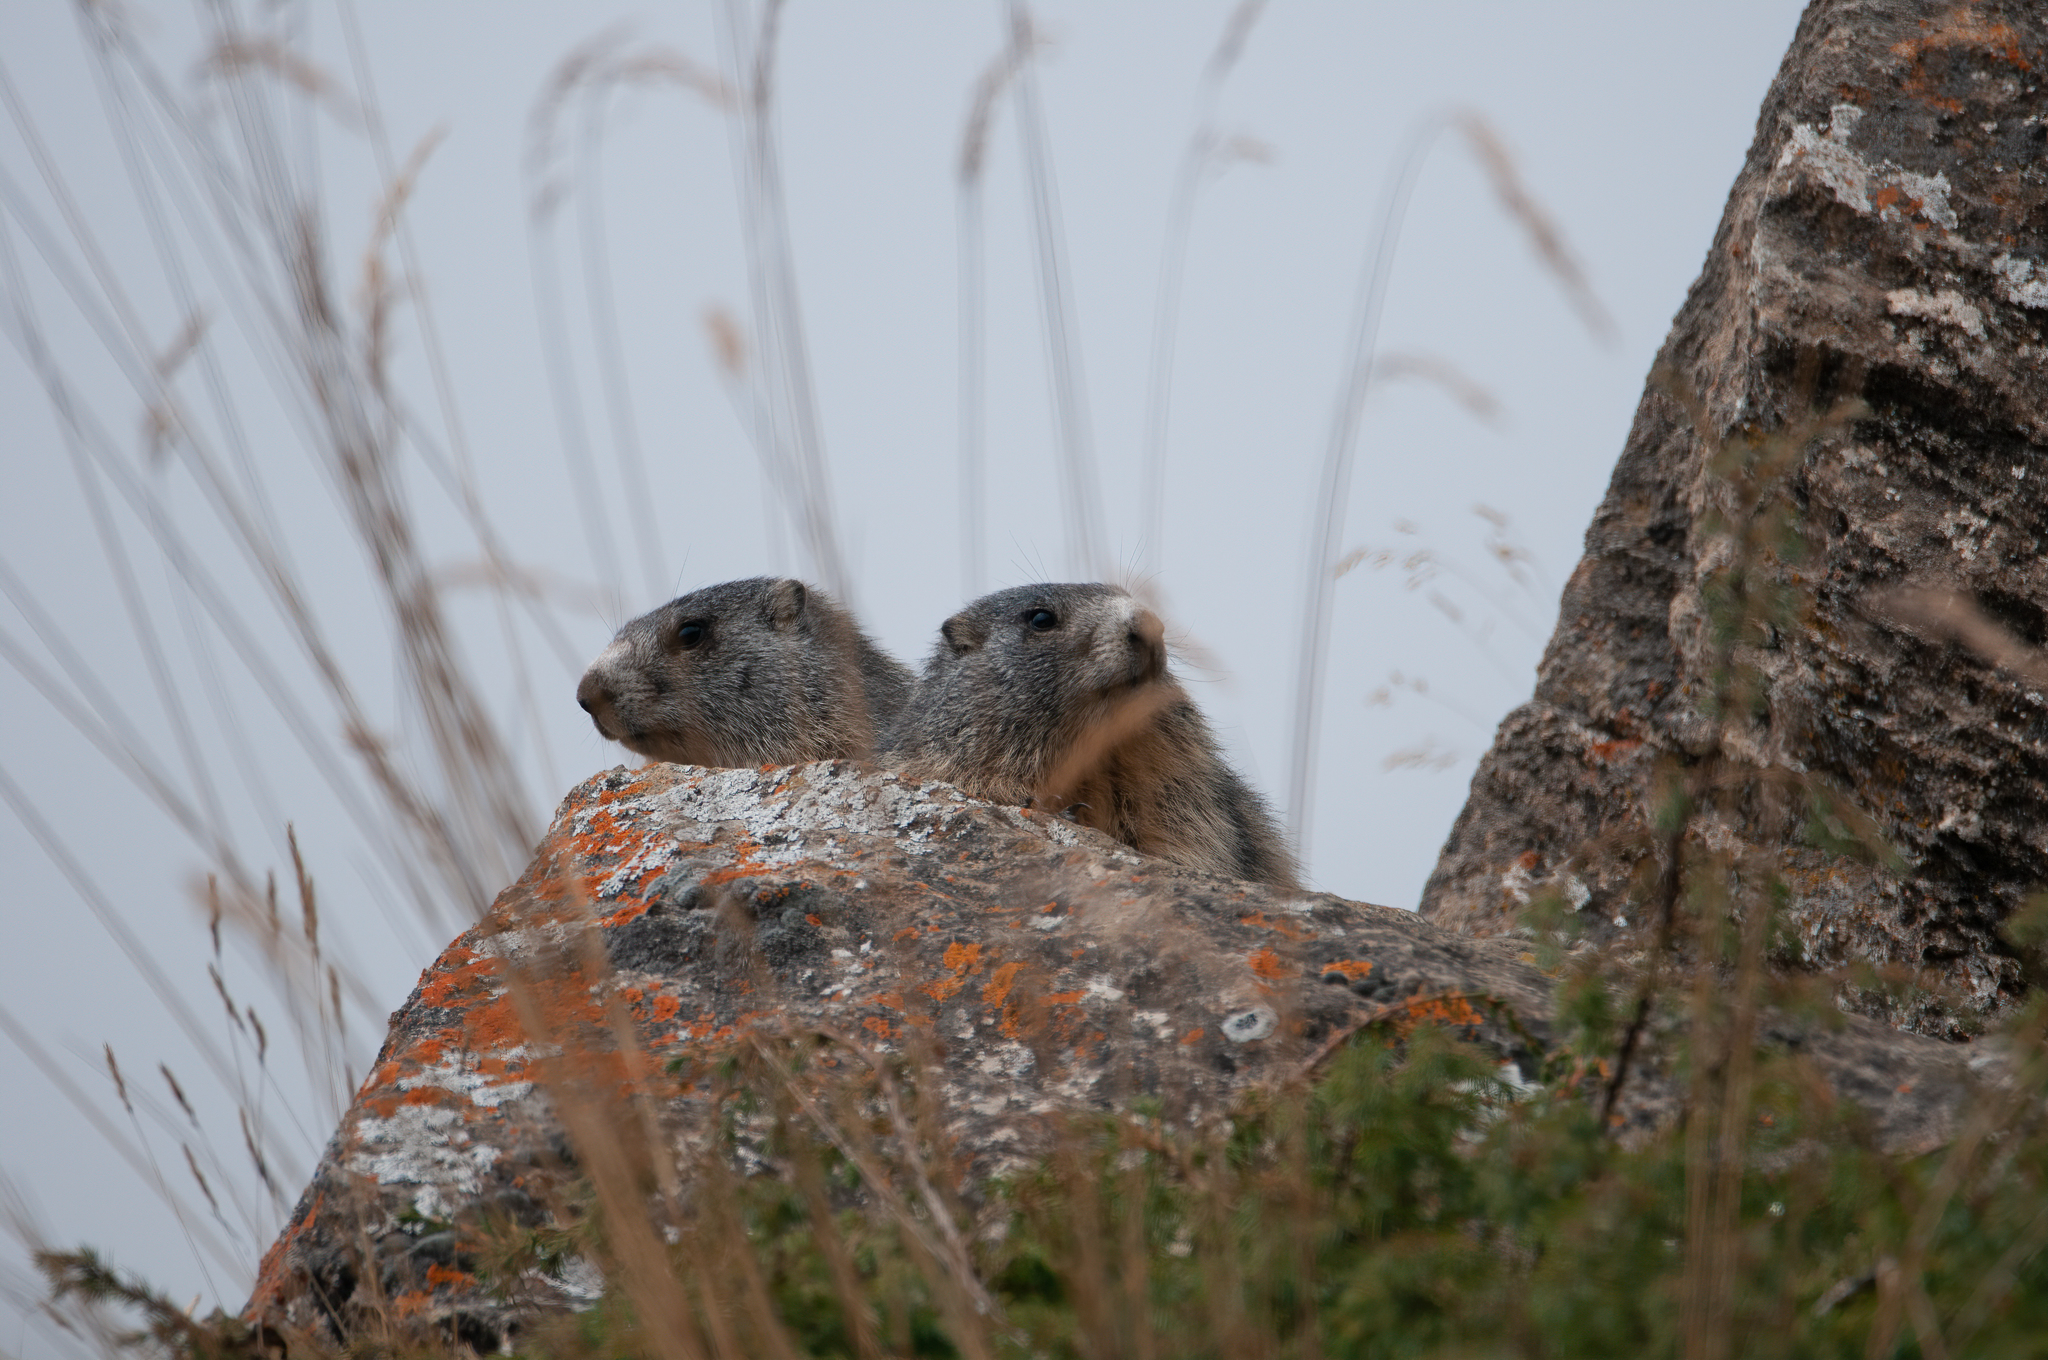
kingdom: Animalia
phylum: Chordata
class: Mammalia
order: Rodentia
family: Sciuridae
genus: Marmota
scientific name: Marmota marmota
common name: Alpine marmot
